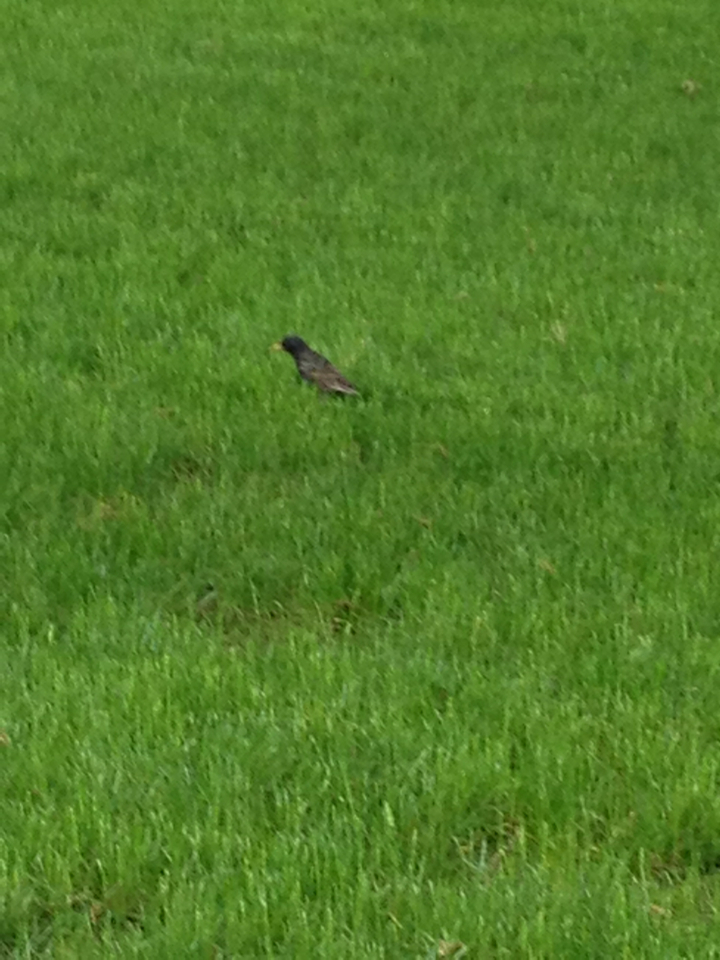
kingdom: Animalia
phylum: Chordata
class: Aves
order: Passeriformes
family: Sturnidae
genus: Sturnus
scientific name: Sturnus vulgaris
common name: Common starling
